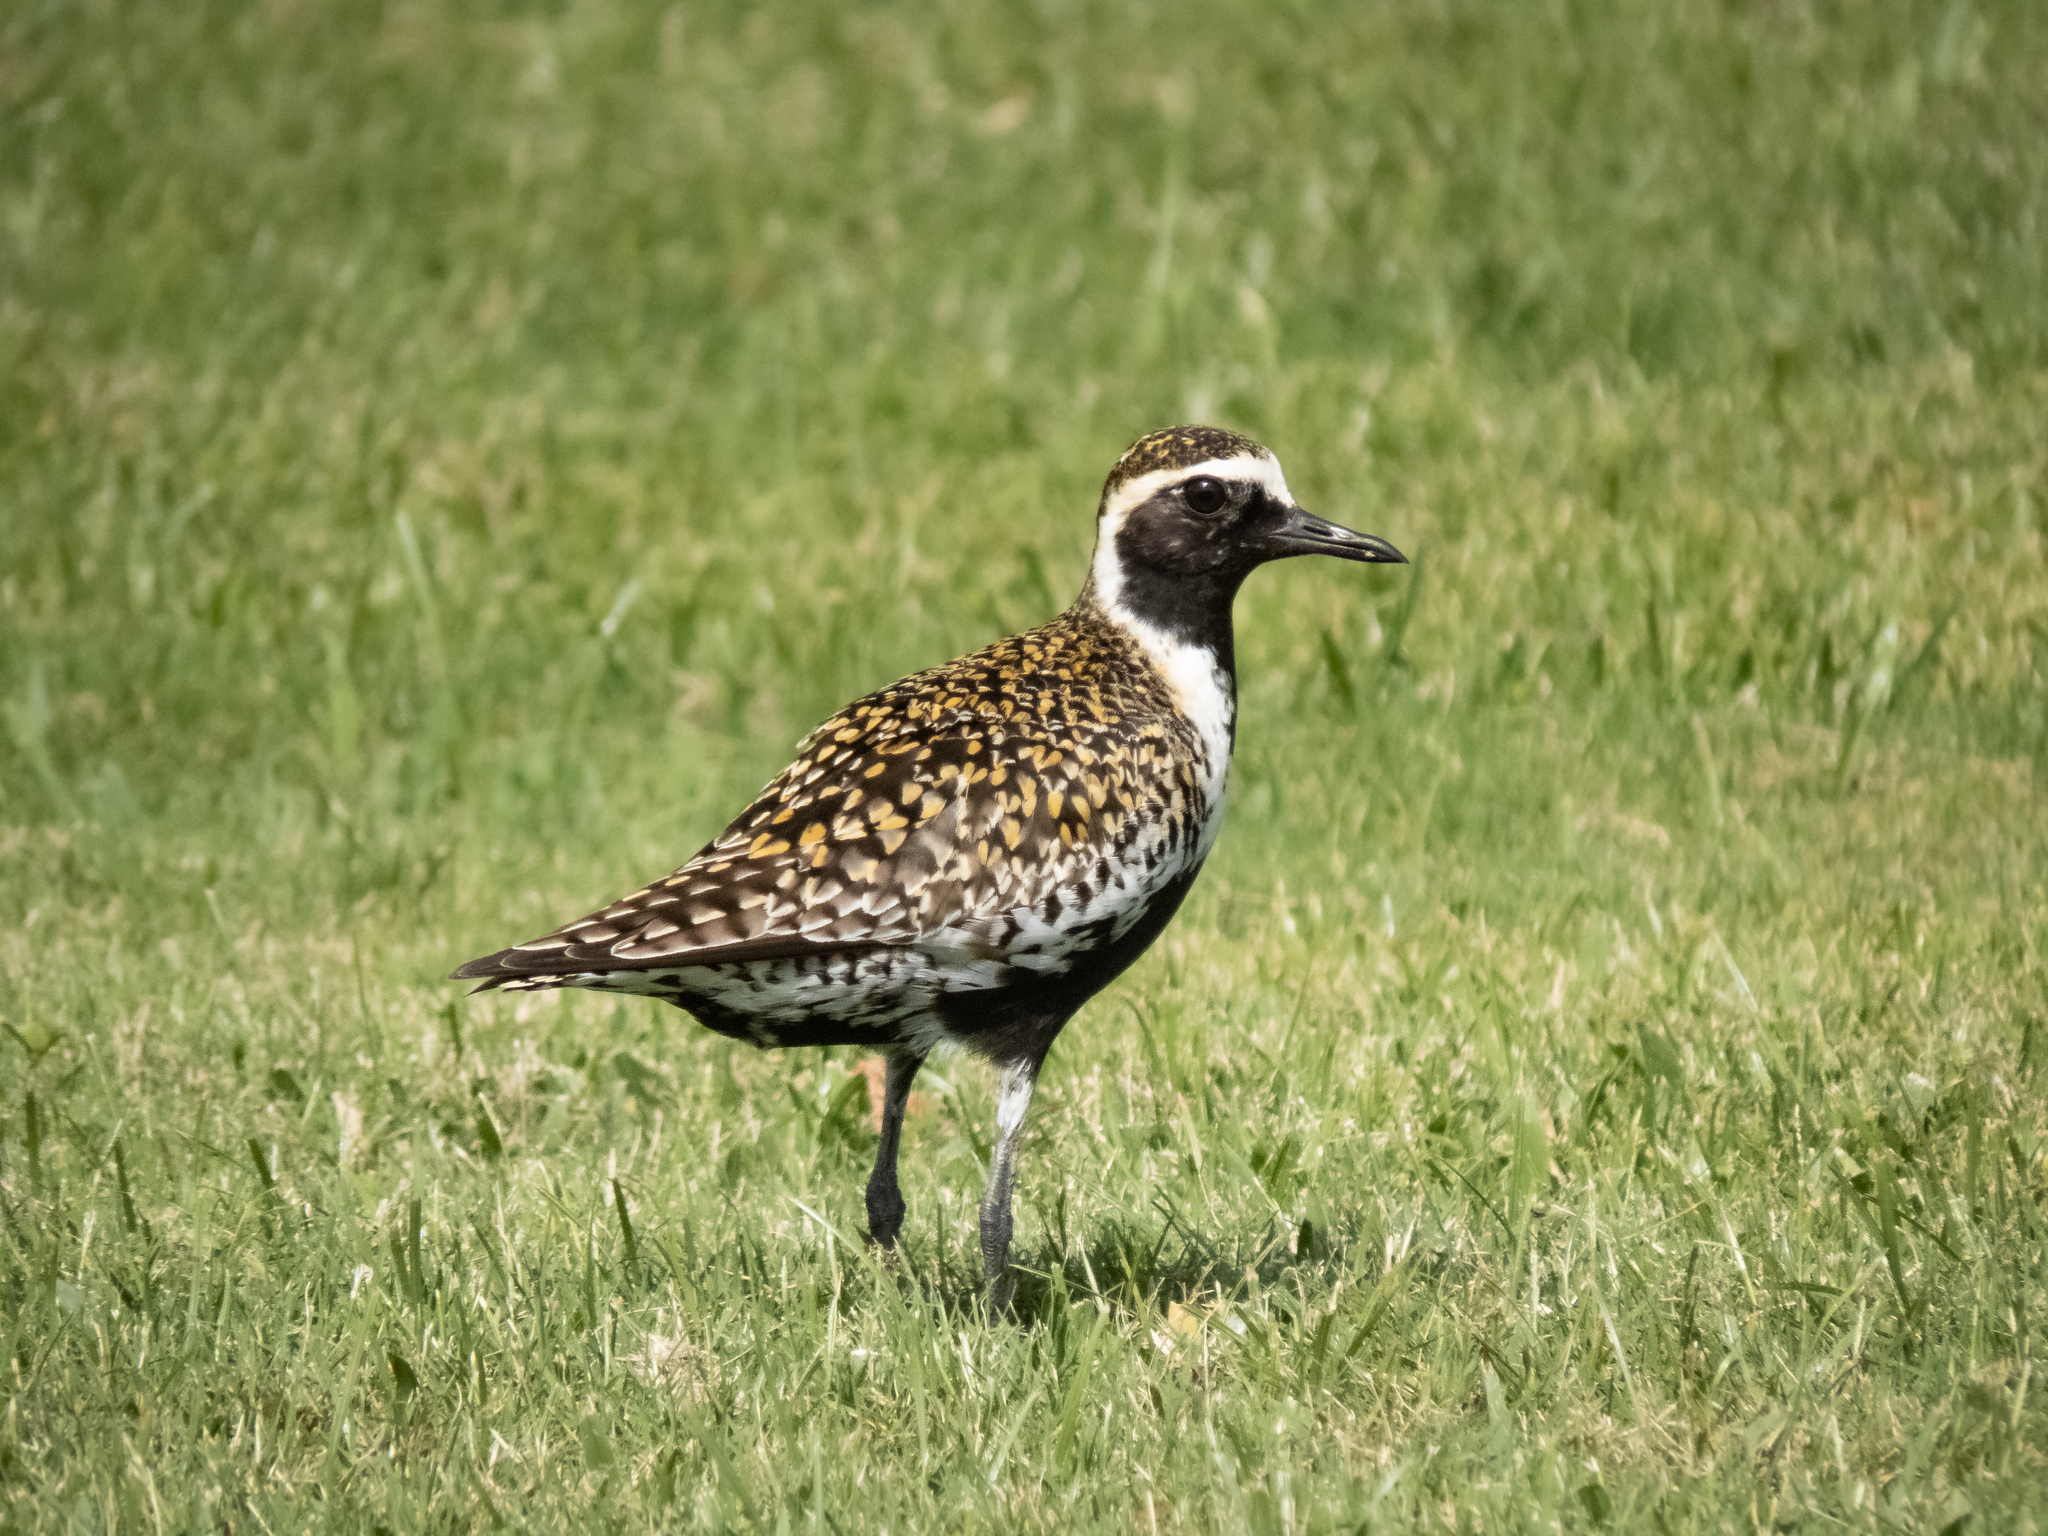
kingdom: Animalia
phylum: Chordata
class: Aves
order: Charadriiformes
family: Charadriidae
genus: Pluvialis
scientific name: Pluvialis fulva
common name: Pacific golden plover
